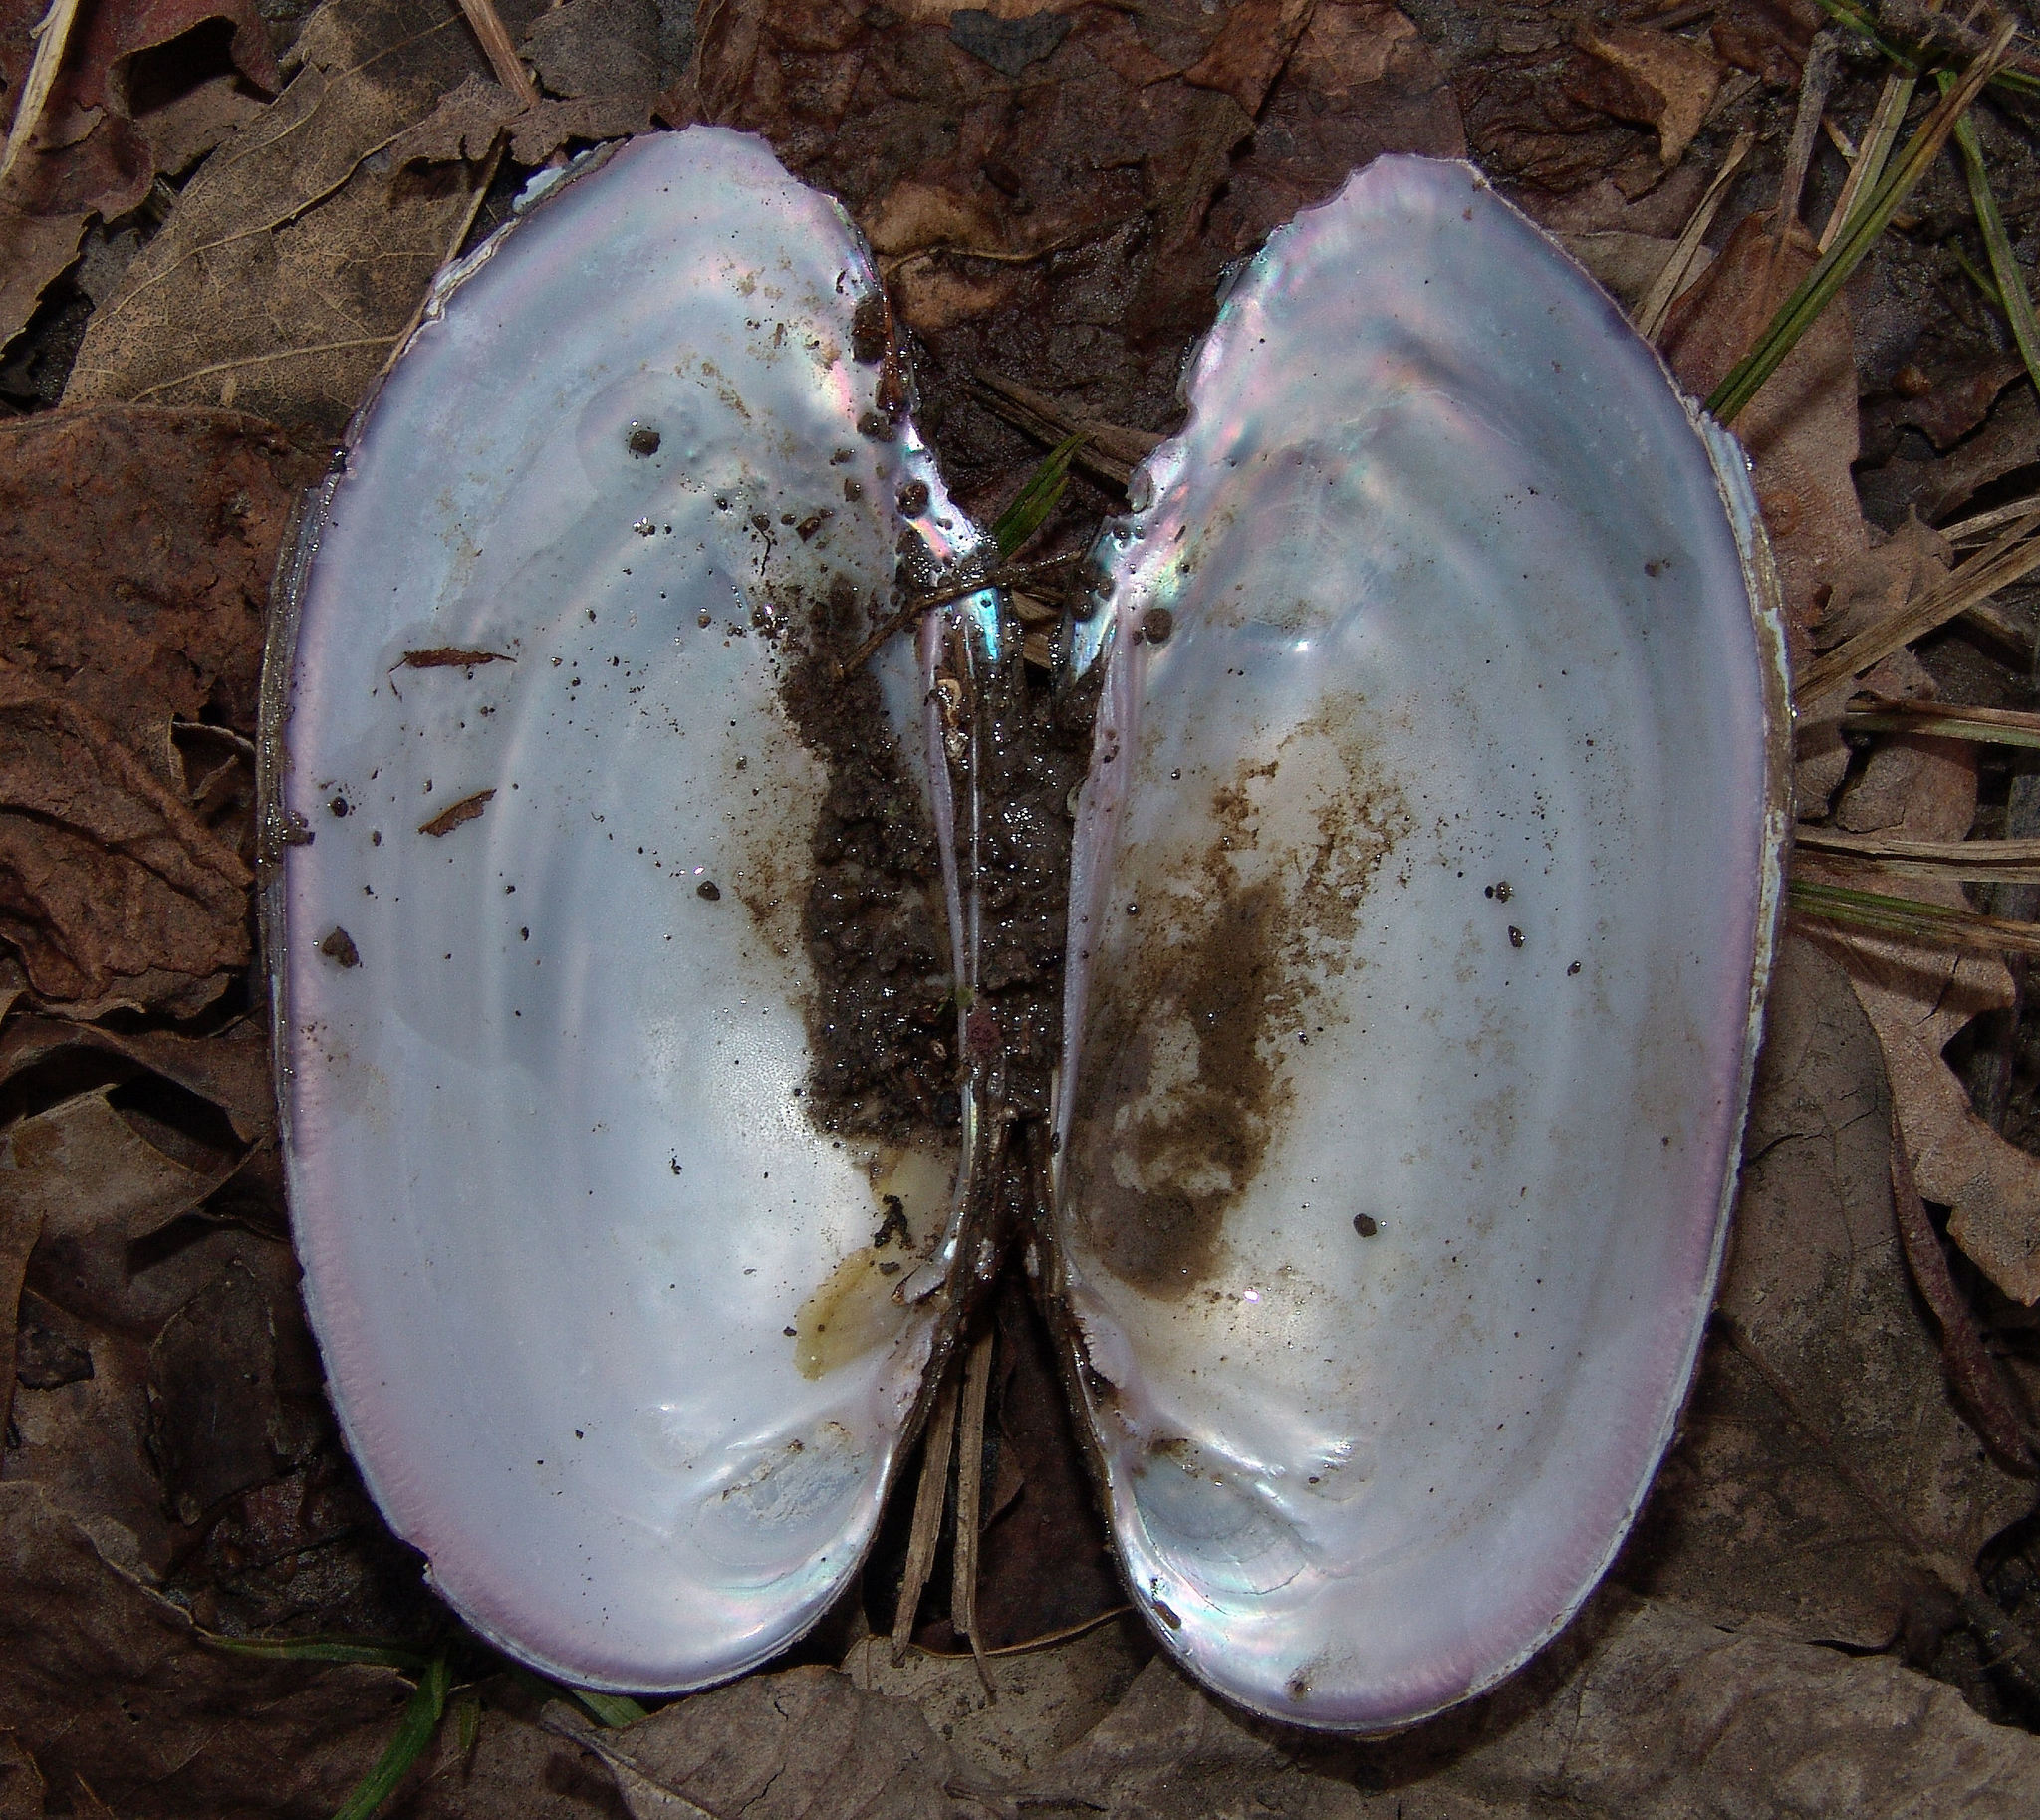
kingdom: Animalia
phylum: Mollusca
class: Bivalvia
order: Unionida
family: Unionidae
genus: Sagittunio
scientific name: Sagittunio subrostratus
